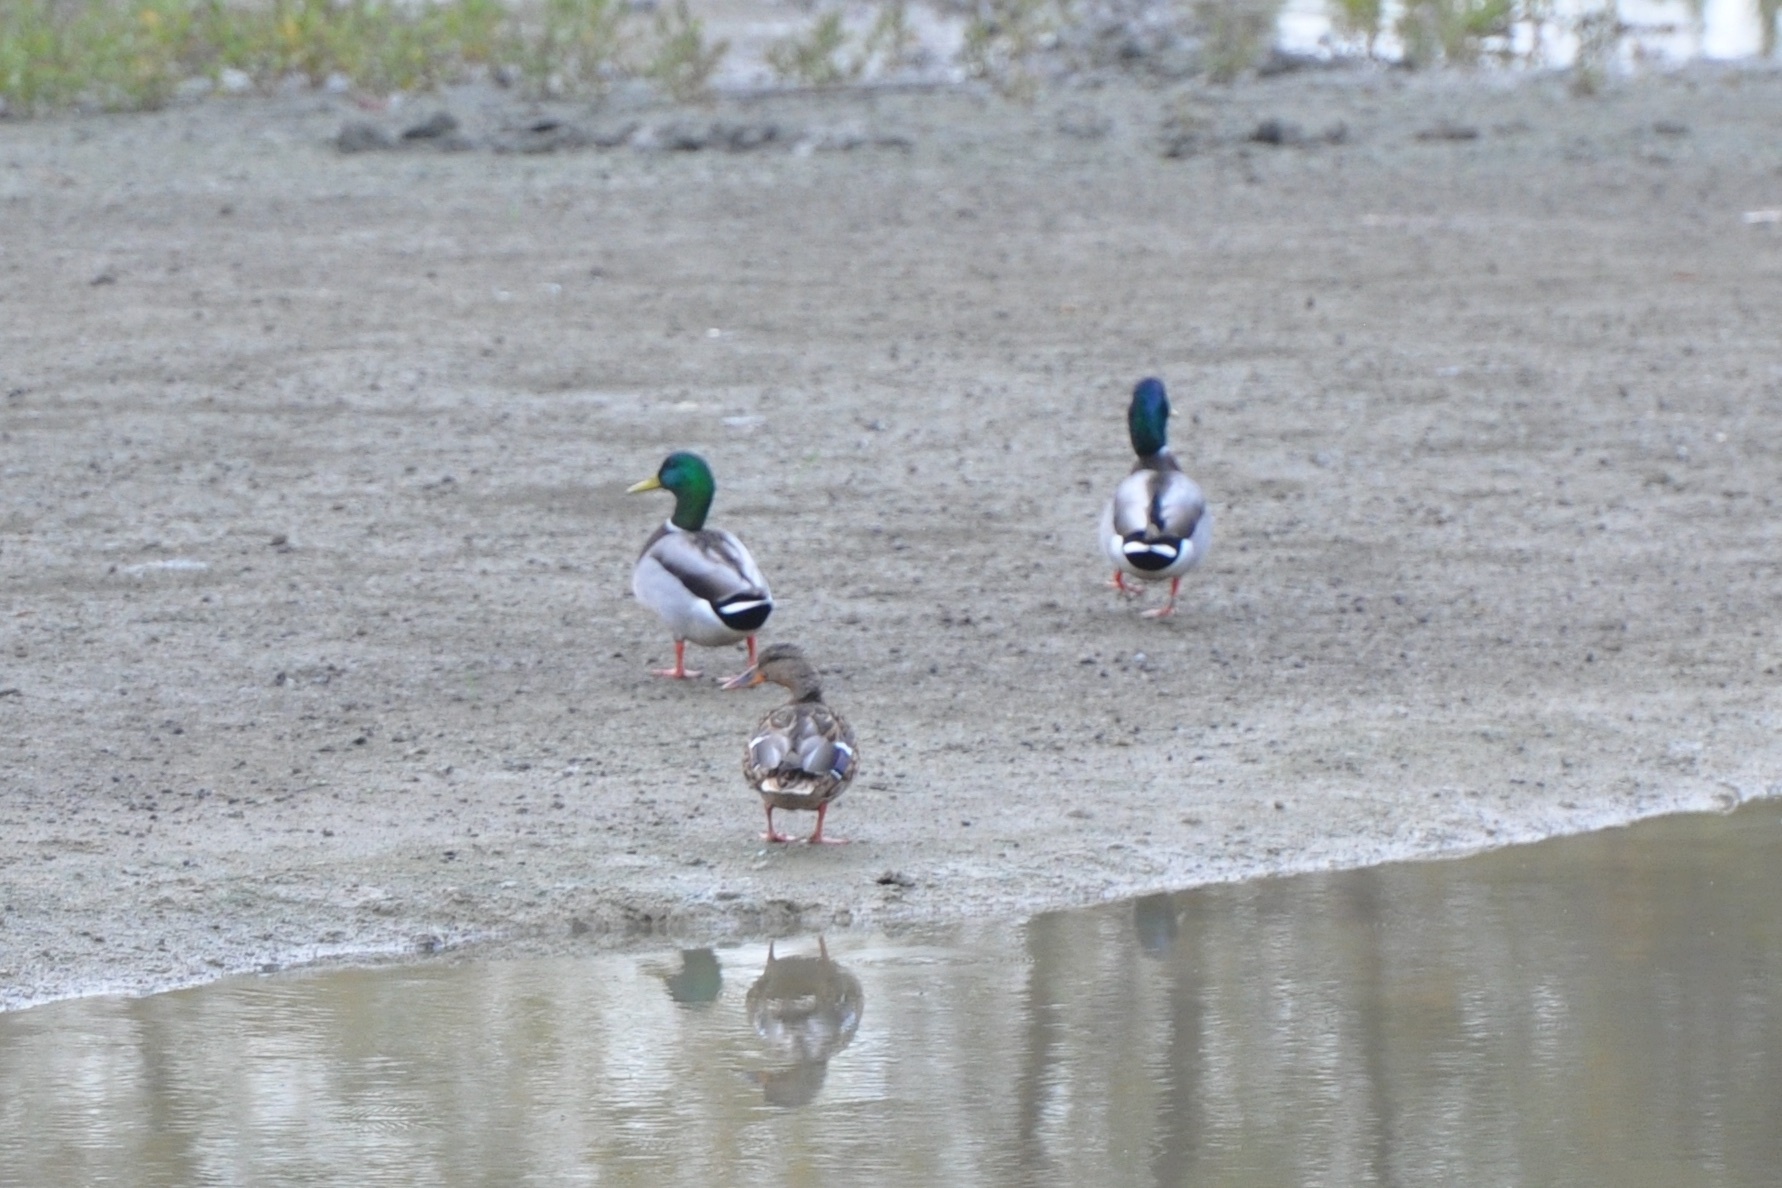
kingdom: Animalia
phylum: Chordata
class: Aves
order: Anseriformes
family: Anatidae
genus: Anas
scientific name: Anas platyrhynchos
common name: Mallard
